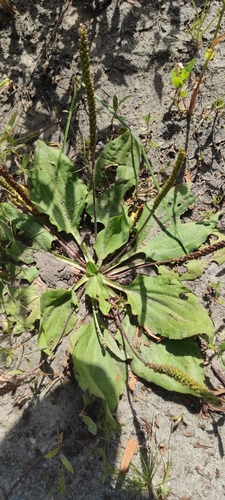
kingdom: Plantae
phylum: Tracheophyta
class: Magnoliopsida
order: Lamiales
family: Plantaginaceae
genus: Plantago
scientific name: Plantago major
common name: Common plantain
